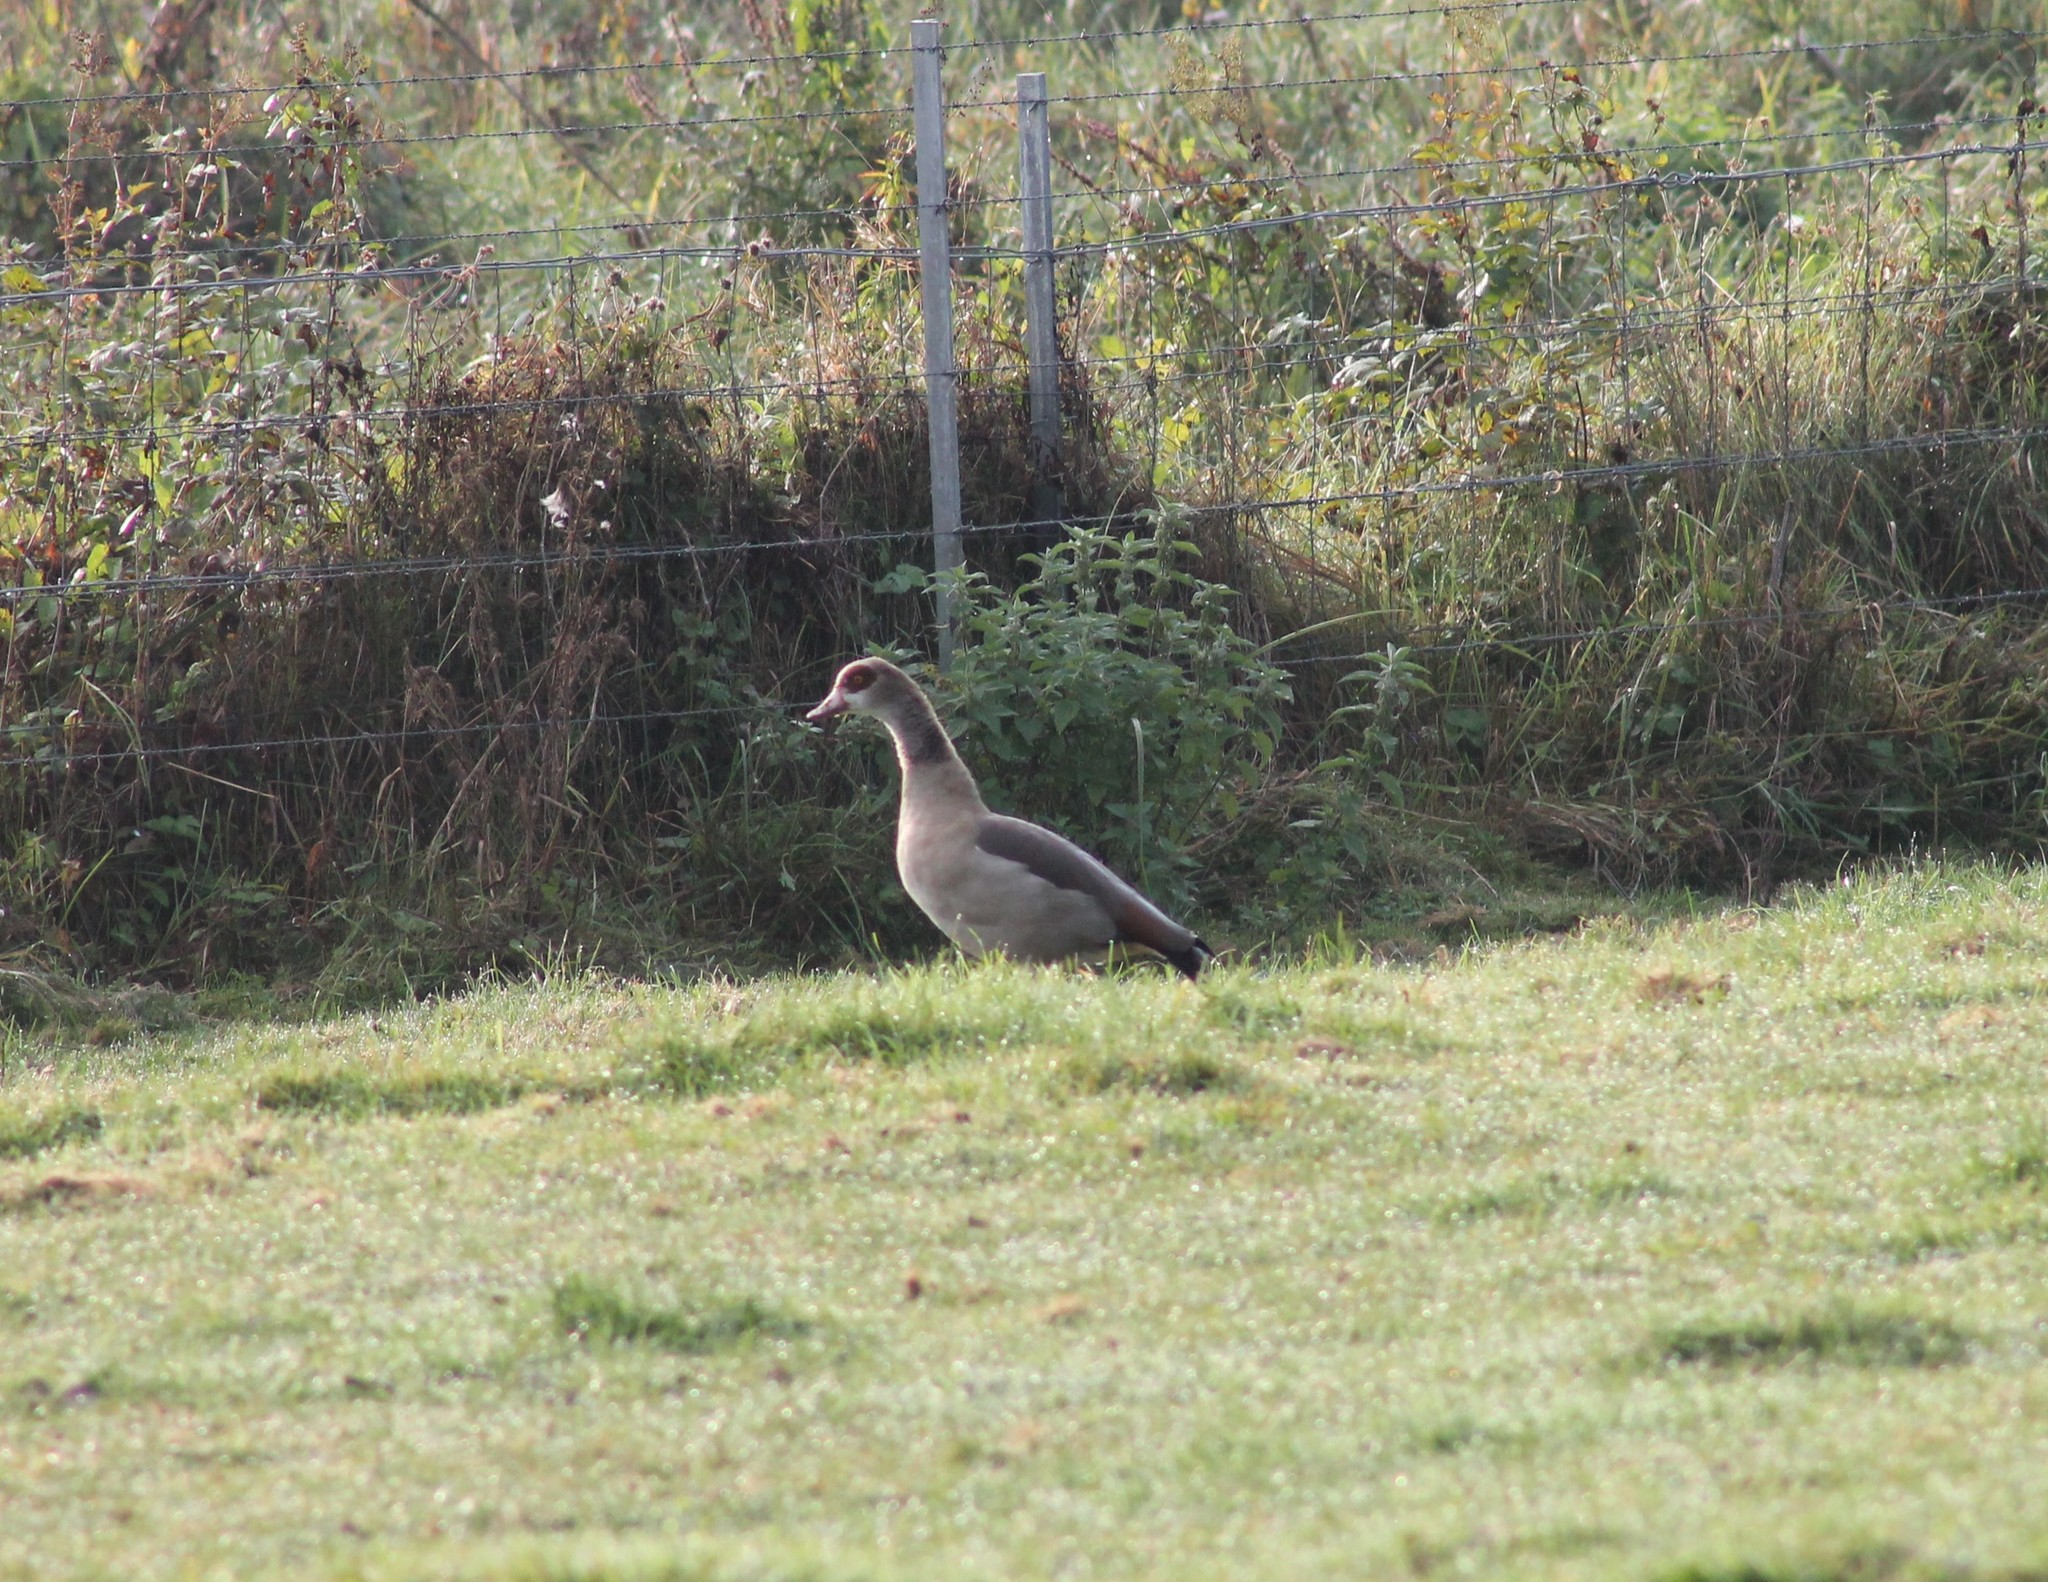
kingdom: Animalia
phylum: Chordata
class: Aves
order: Anseriformes
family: Anatidae
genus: Alopochen
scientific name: Alopochen aegyptiaca
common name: Egyptian goose
